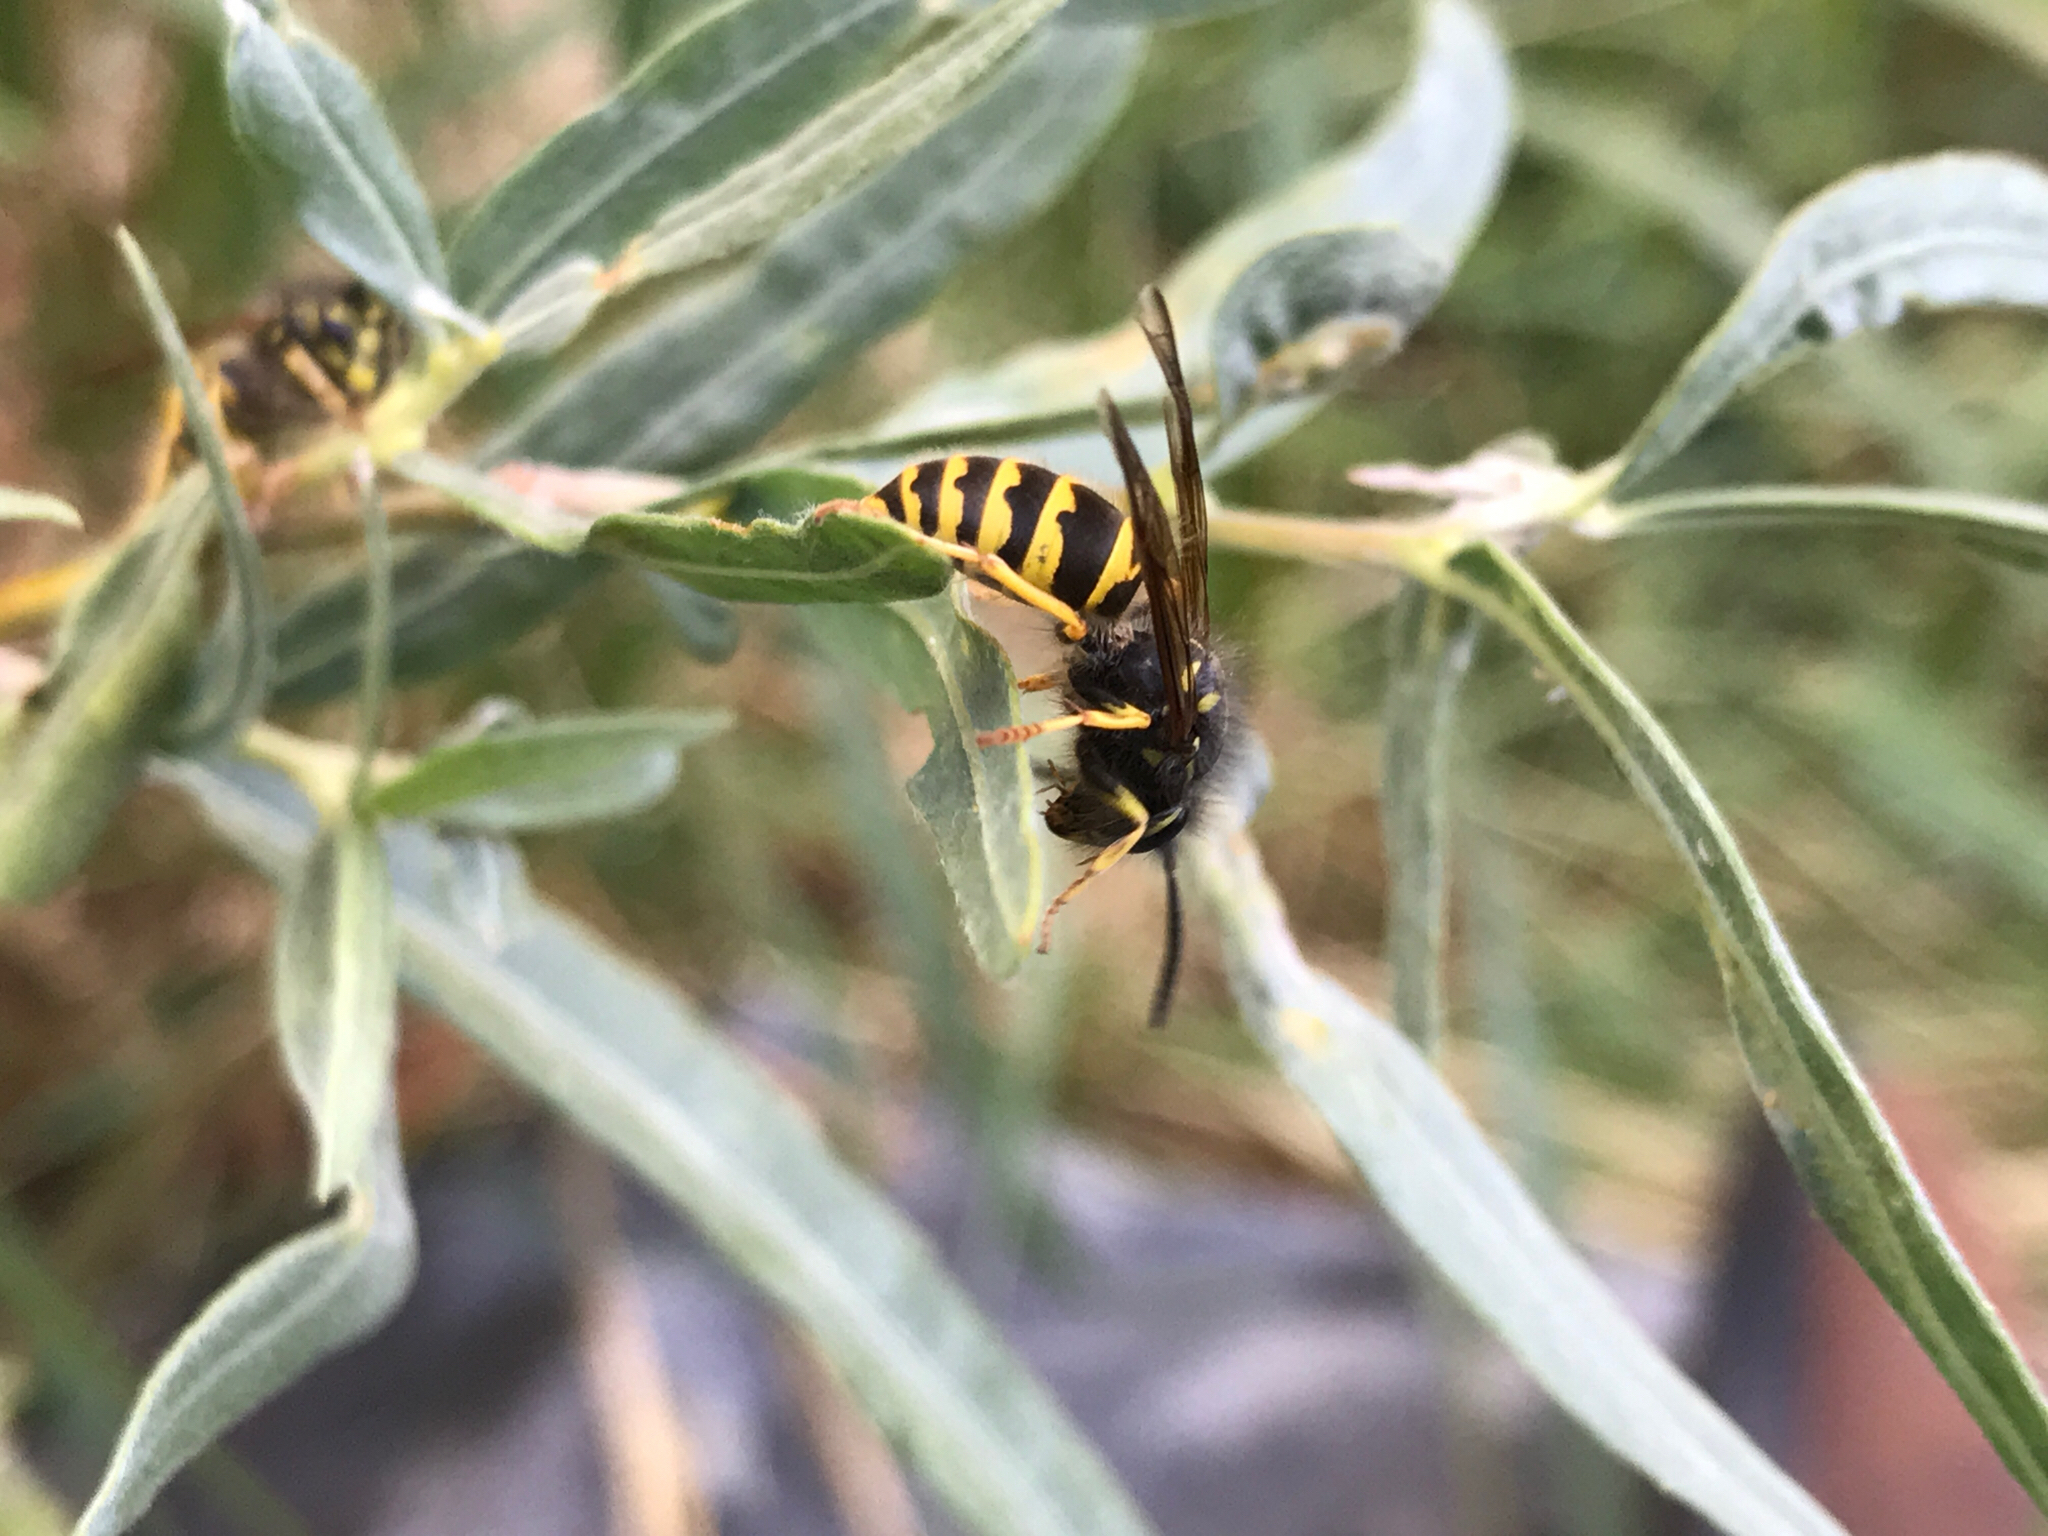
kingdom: Animalia
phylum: Arthropoda
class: Insecta
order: Hymenoptera
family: Vespidae
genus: Vespula
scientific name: Vespula alascensis
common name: Alaska yellowjacket
